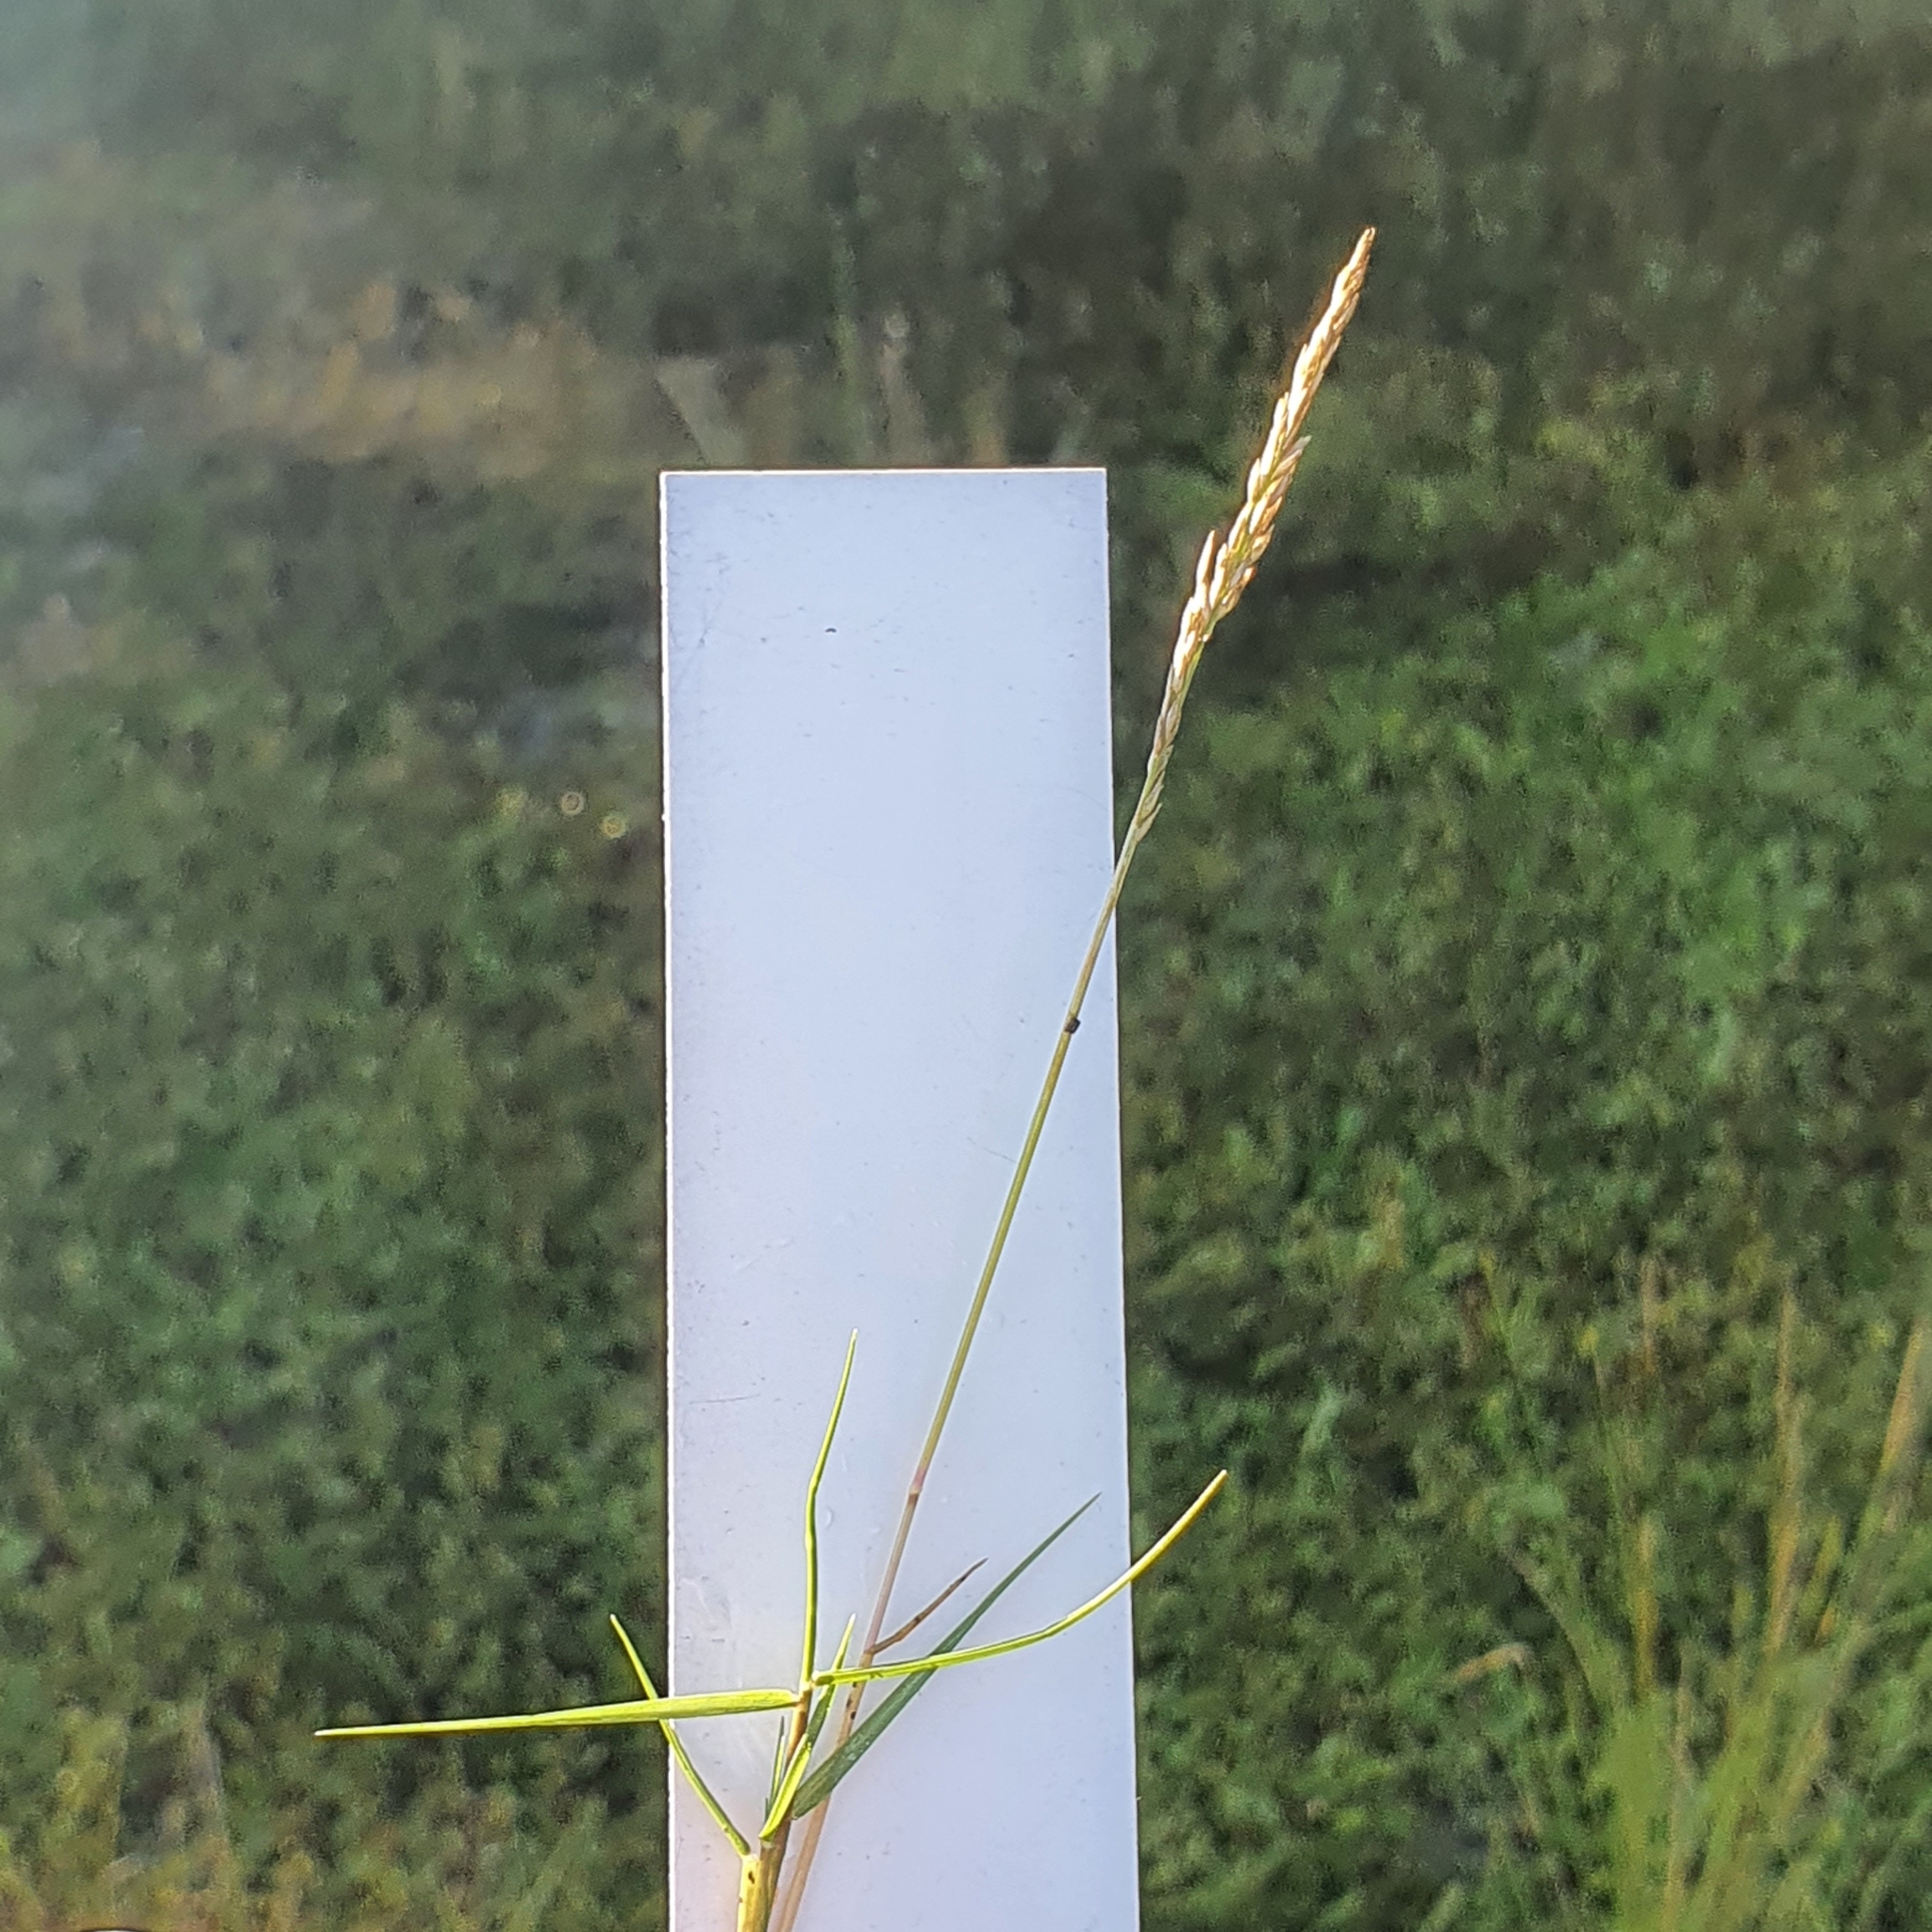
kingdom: Plantae
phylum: Tracheophyta
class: Liliopsida
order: Poales
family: Poaceae
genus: Sporobolus
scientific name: Sporobolus virginicus
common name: Beach dropseed
